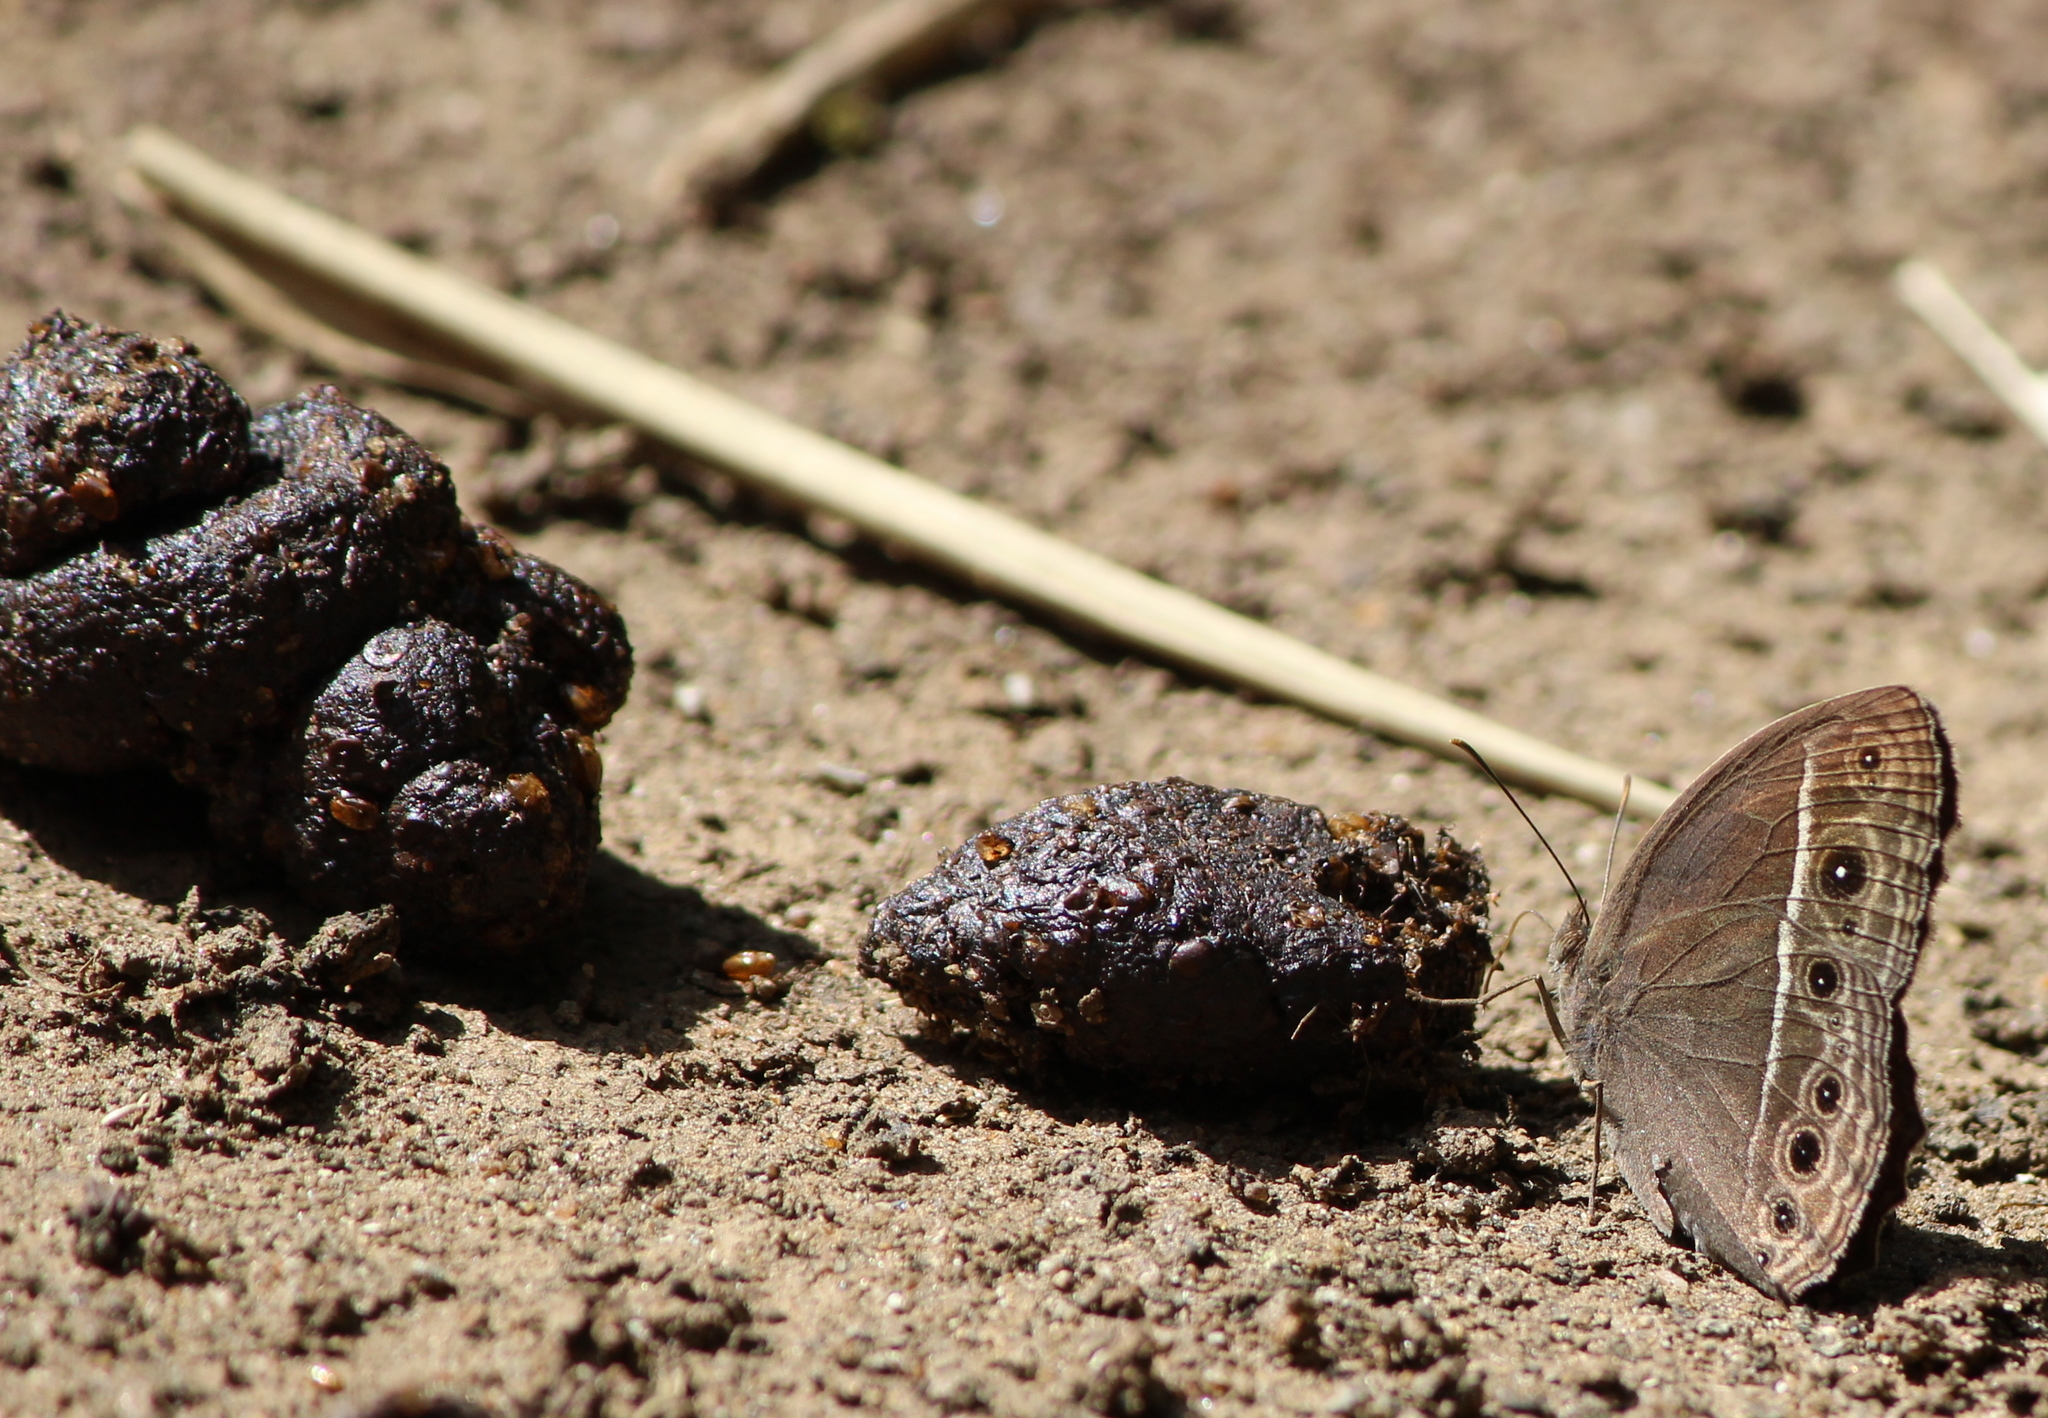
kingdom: Animalia
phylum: Arthropoda
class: Insecta
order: Lepidoptera
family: Nymphalidae
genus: Mycalesis
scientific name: Mycalesis mineus
